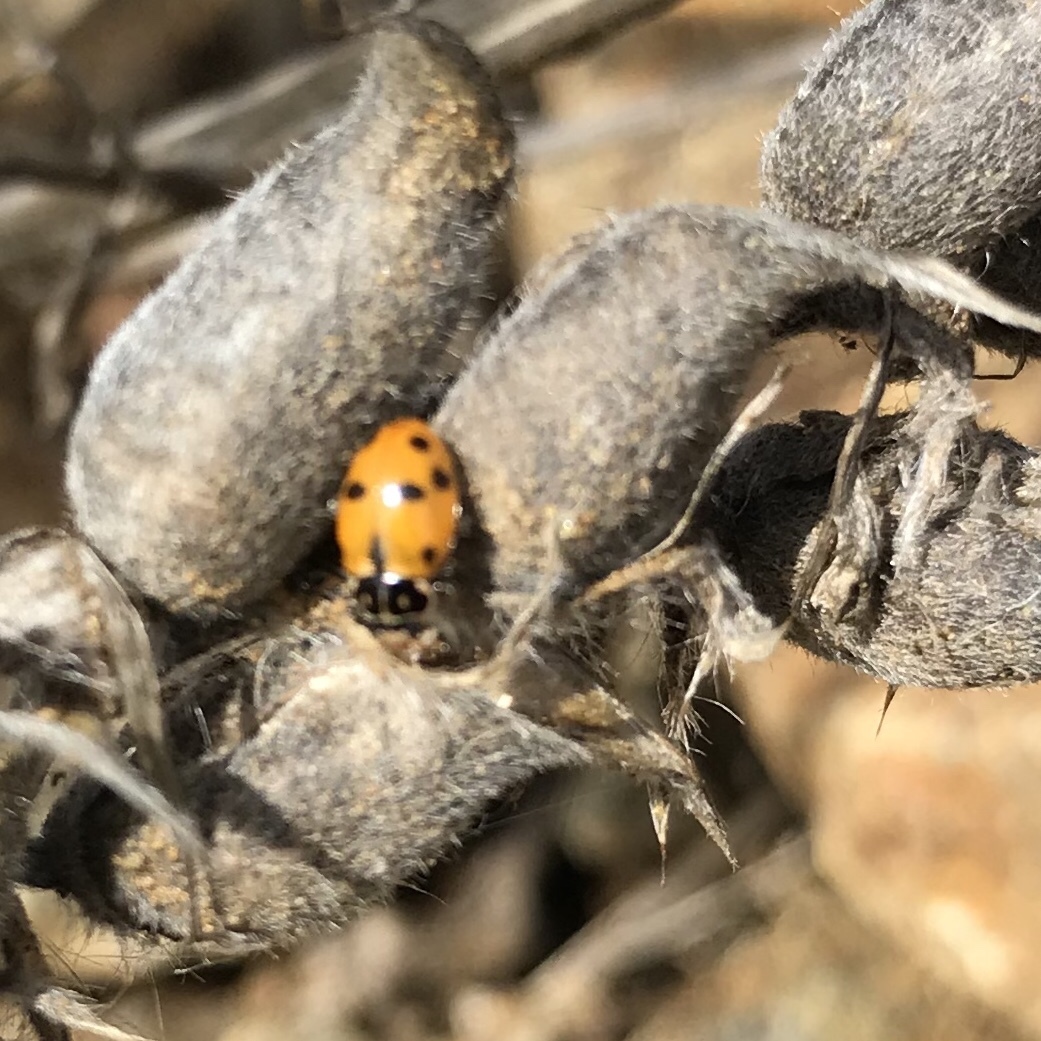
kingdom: Animalia
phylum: Arthropoda
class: Insecta
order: Coleoptera
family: Coccinellidae
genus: Hippodamia
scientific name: Hippodamia variegata
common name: Ladybird beetle
